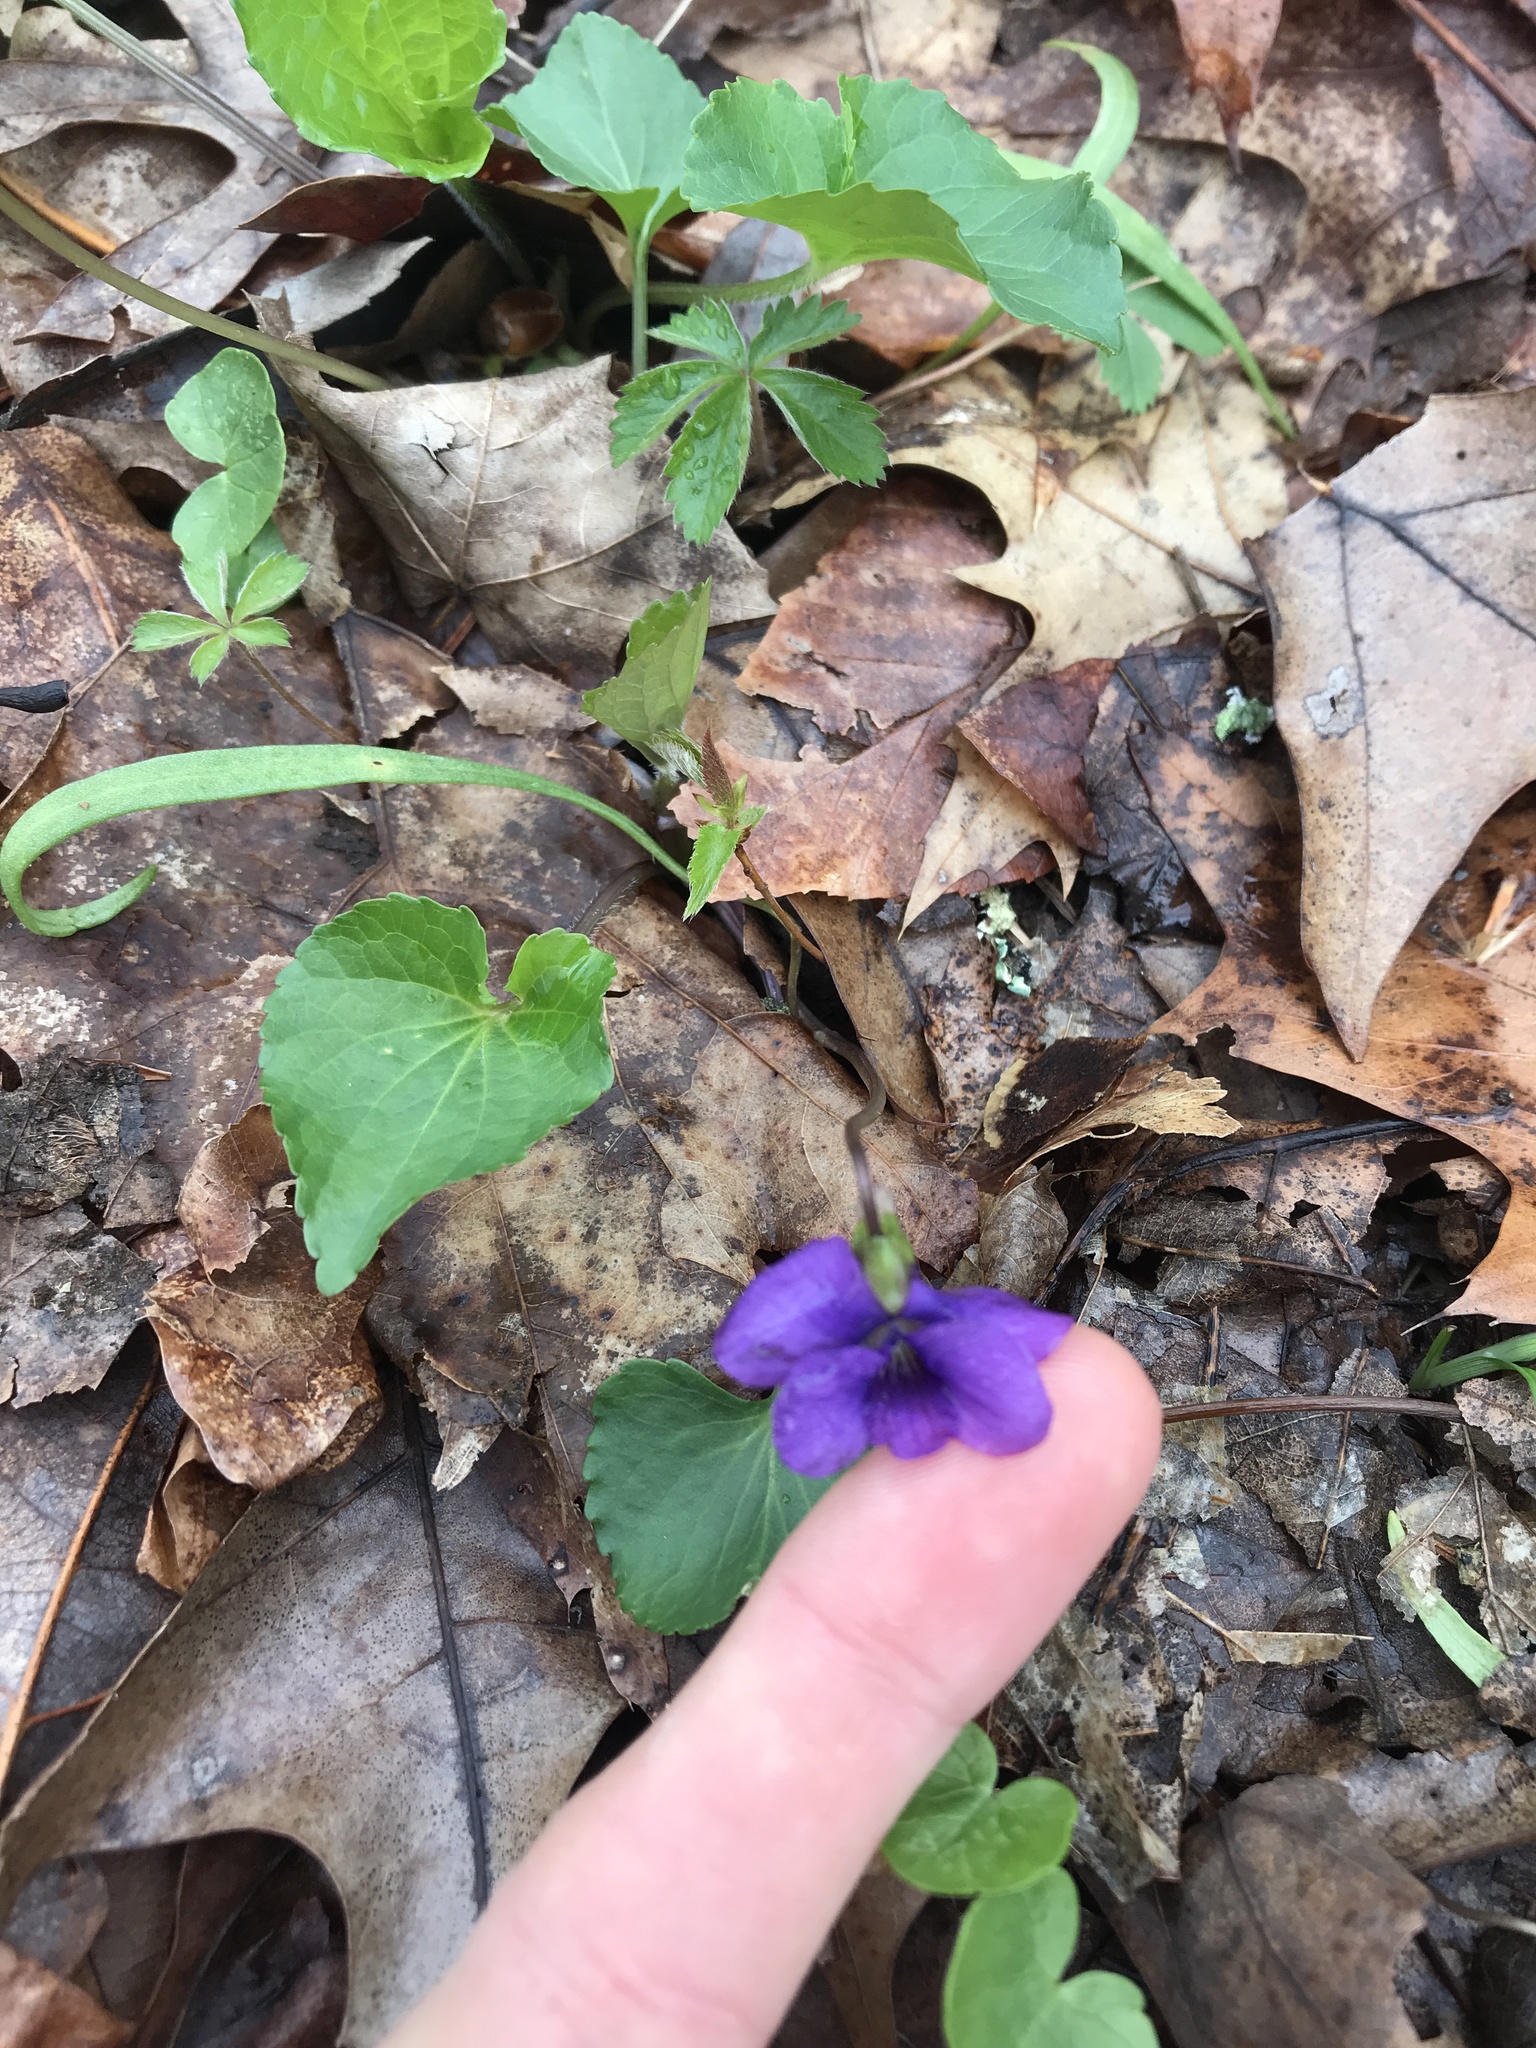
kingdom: Plantae
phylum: Tracheophyta
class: Magnoliopsida
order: Malpighiales
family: Violaceae
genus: Viola
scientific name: Viola sororia
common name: Dooryard violet
